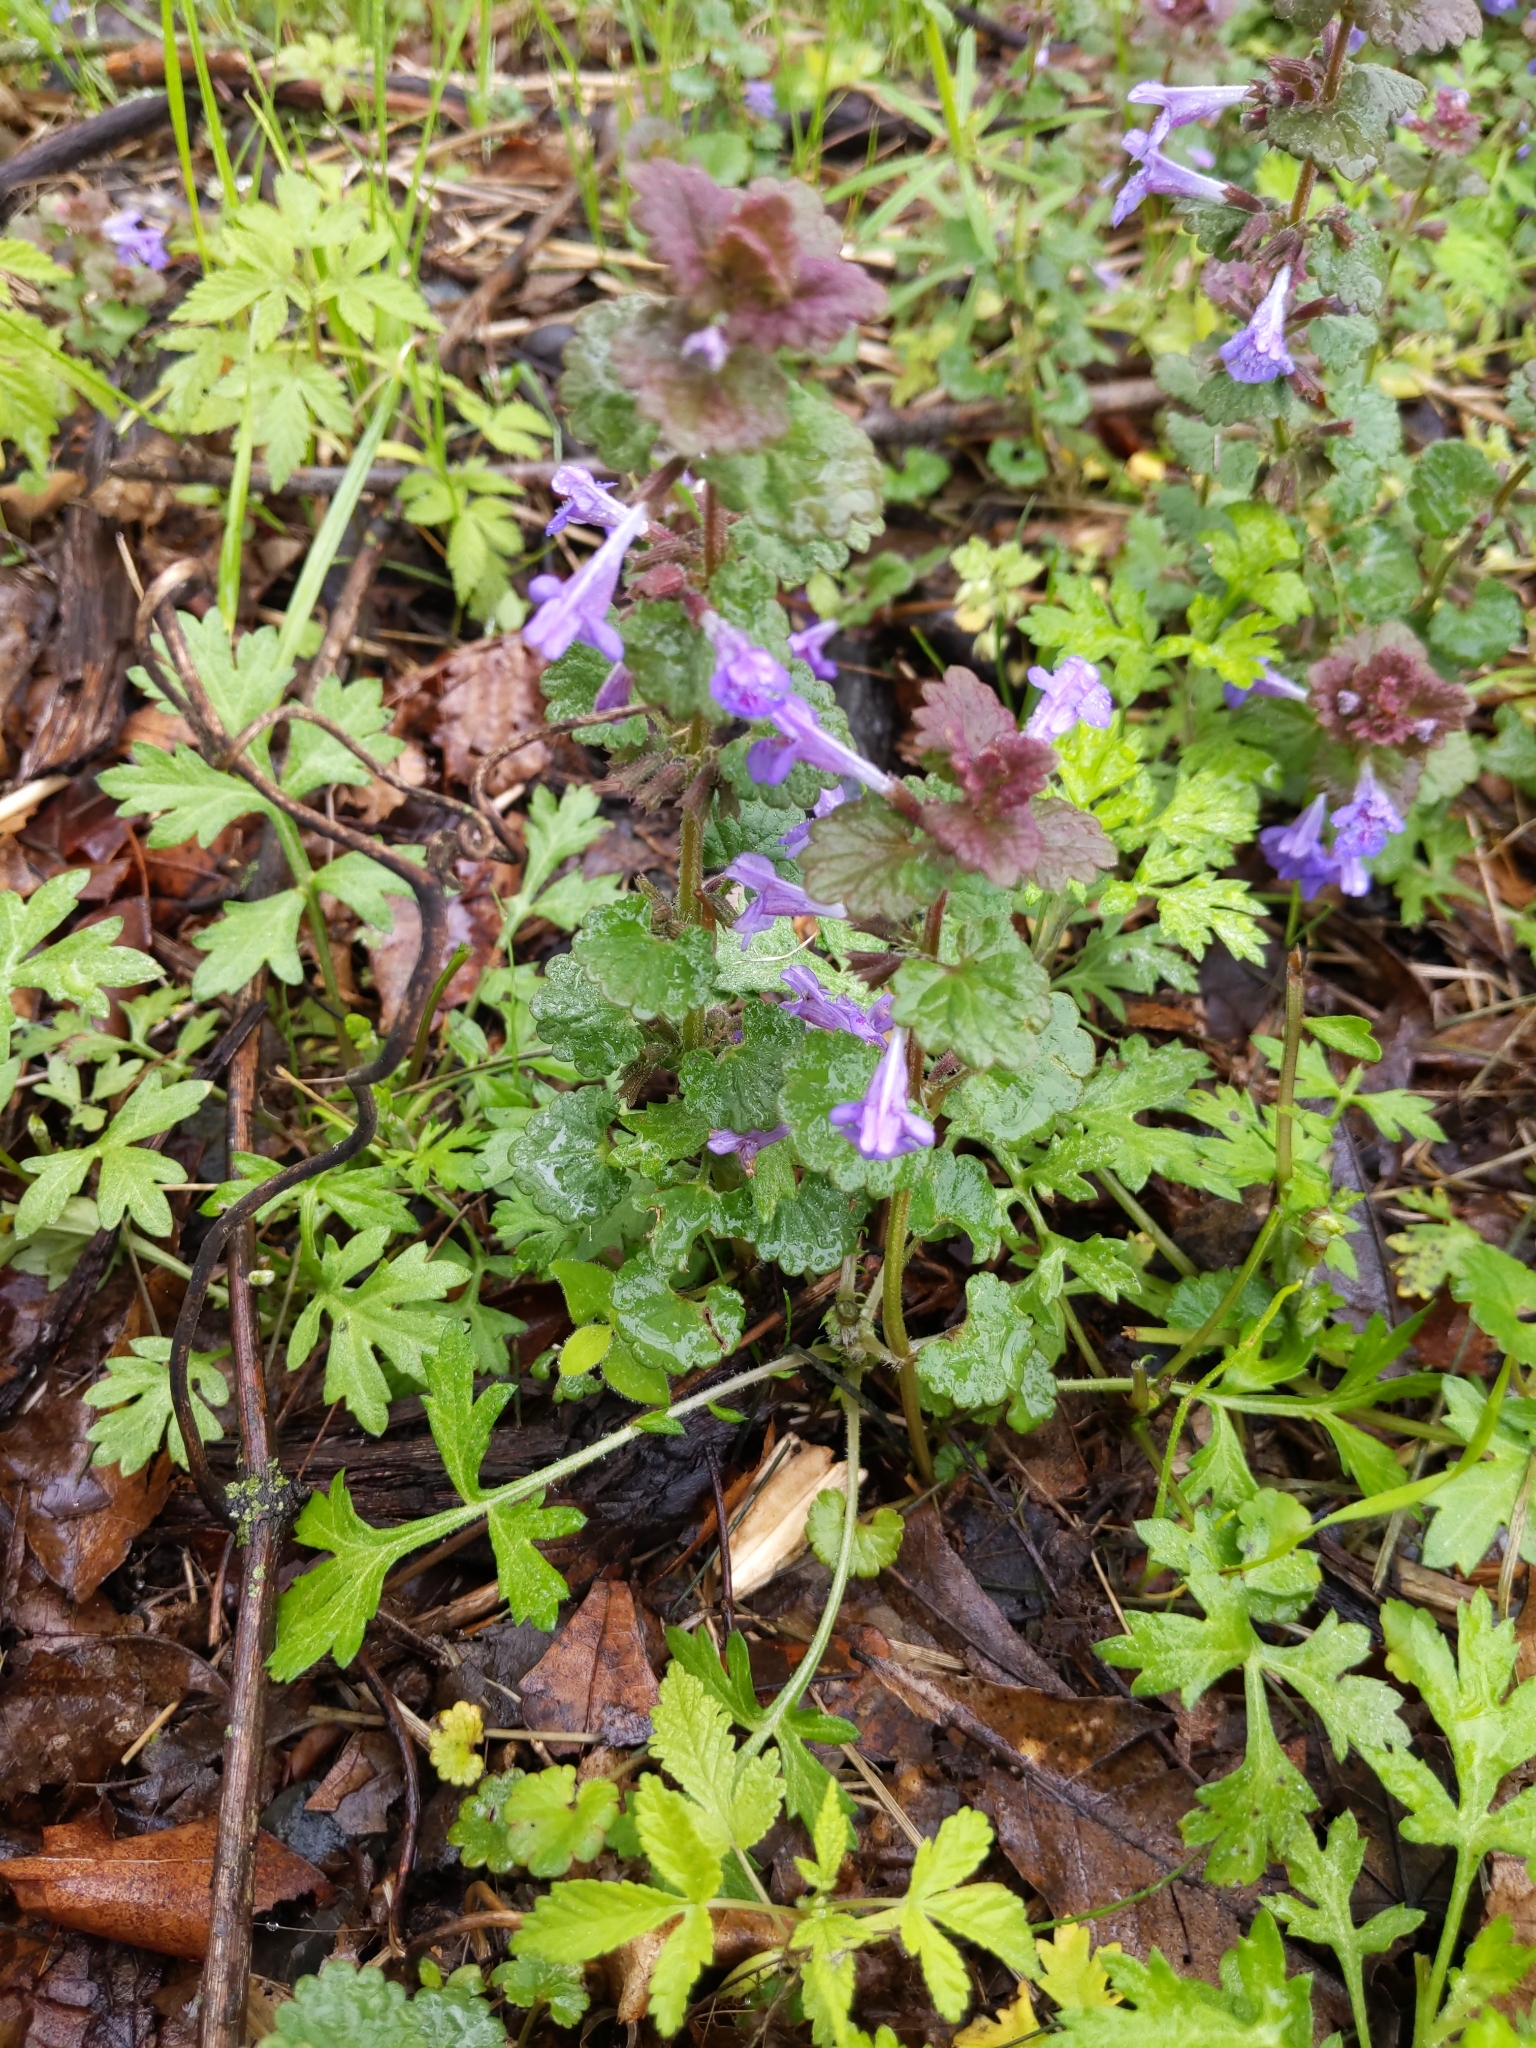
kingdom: Plantae
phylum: Tracheophyta
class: Magnoliopsida
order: Lamiales
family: Lamiaceae
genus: Glechoma
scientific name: Glechoma hederacea
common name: Ground ivy
